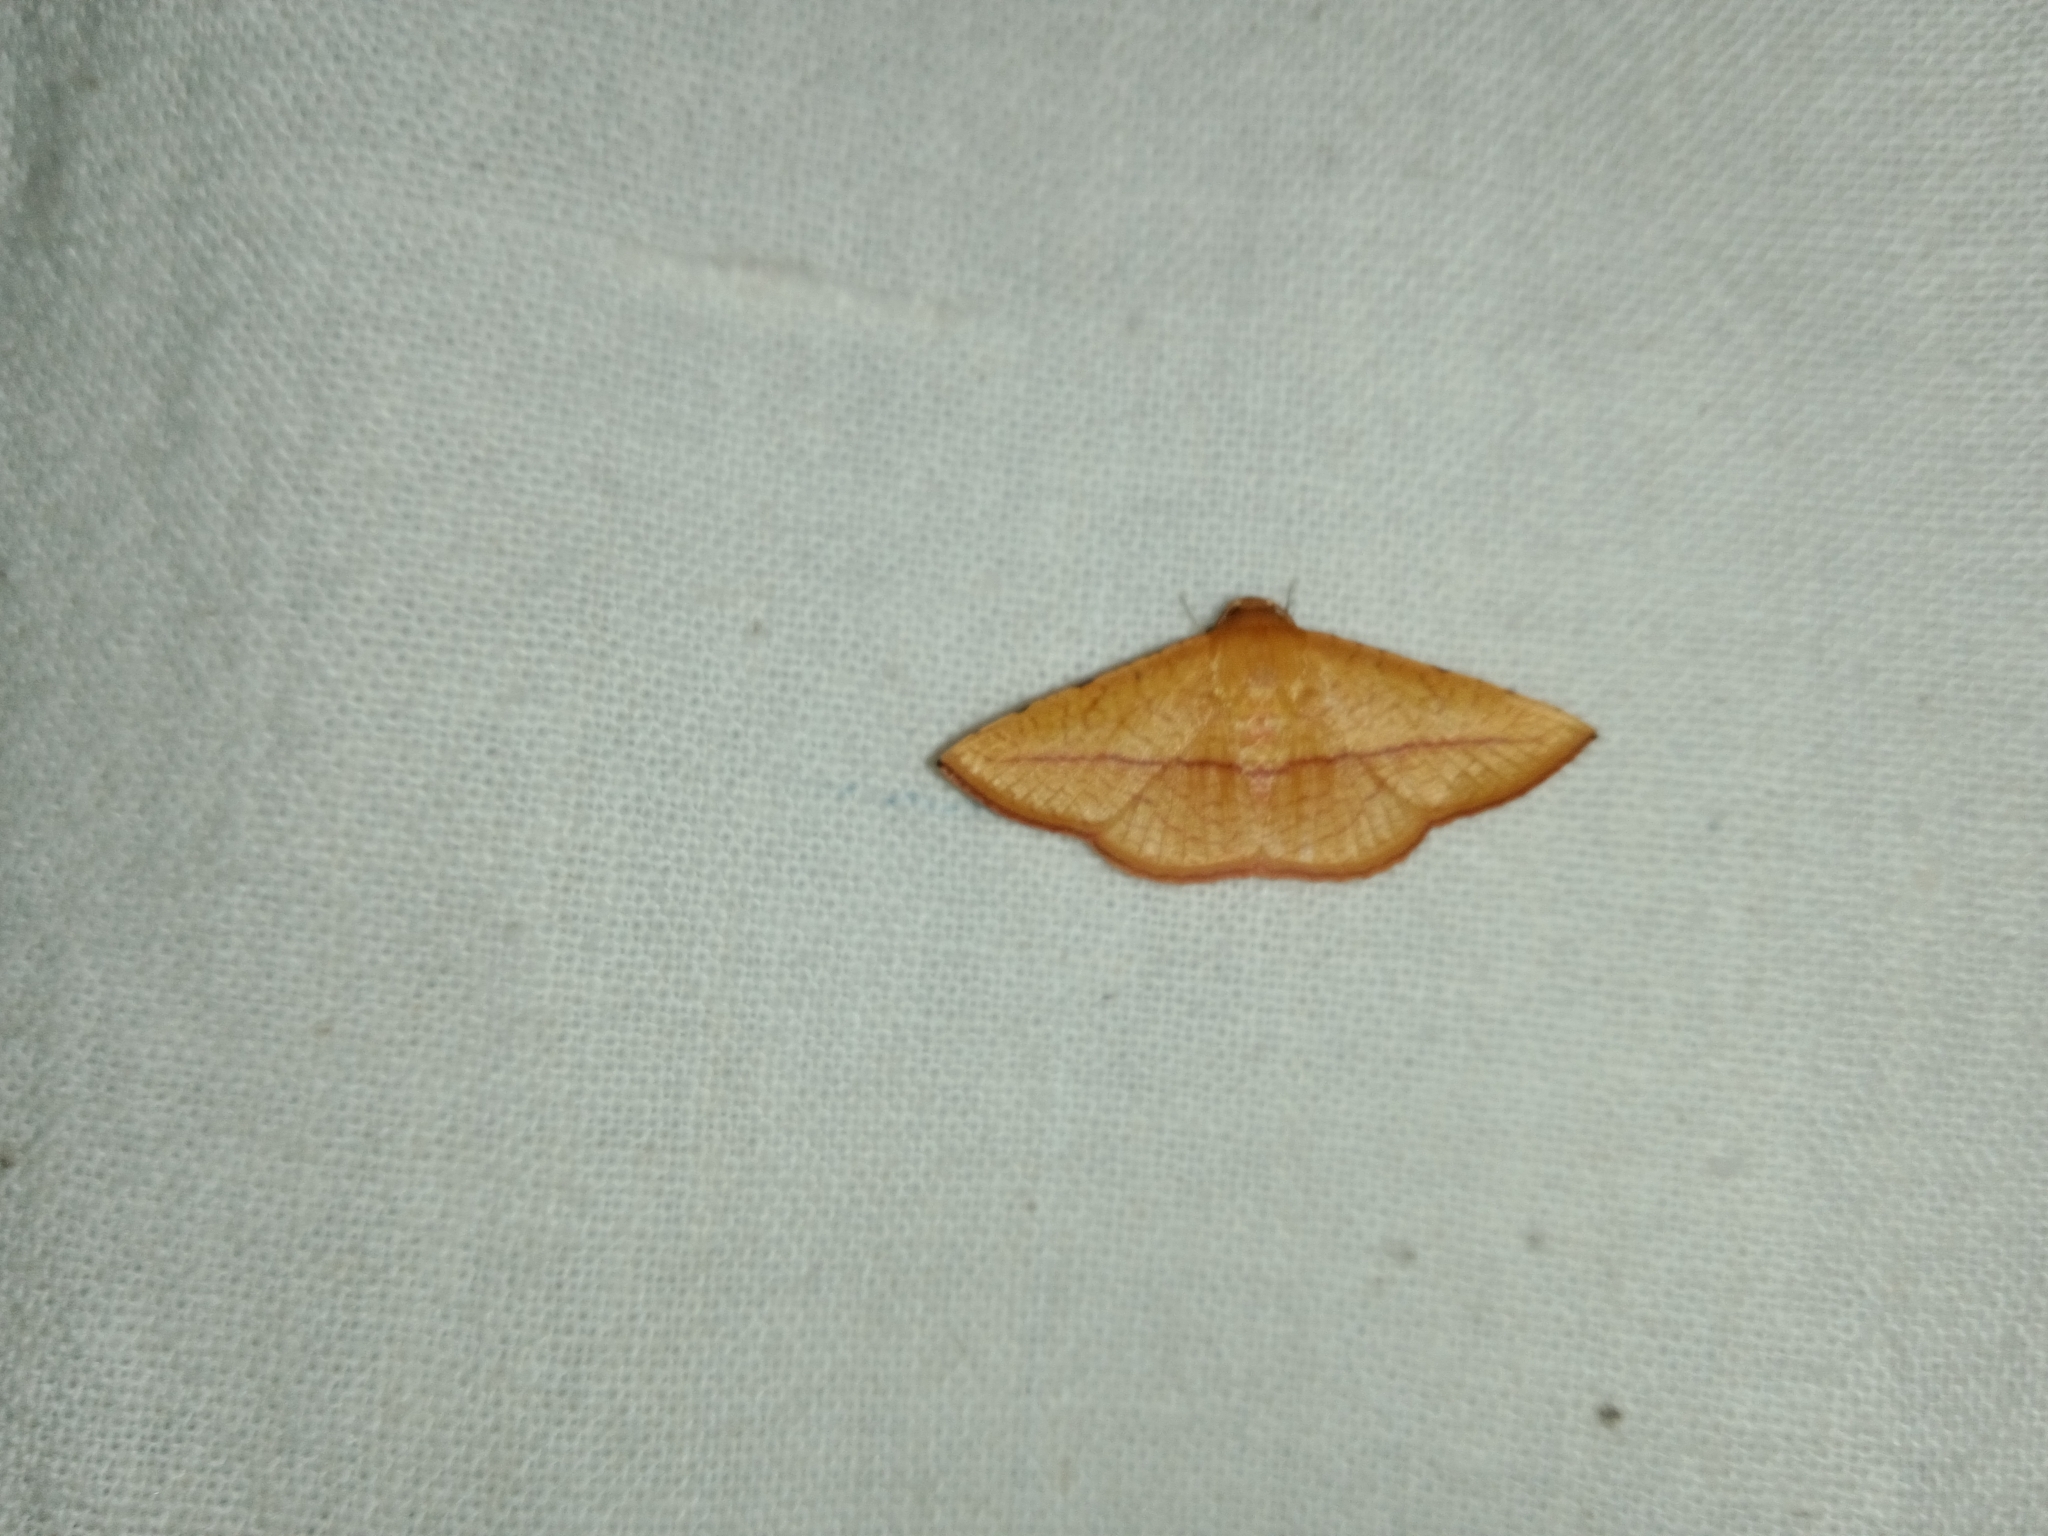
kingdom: Animalia
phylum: Arthropoda
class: Insecta
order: Lepidoptera
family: Thyrididae
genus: Striglina
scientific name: Striglina scitaria
